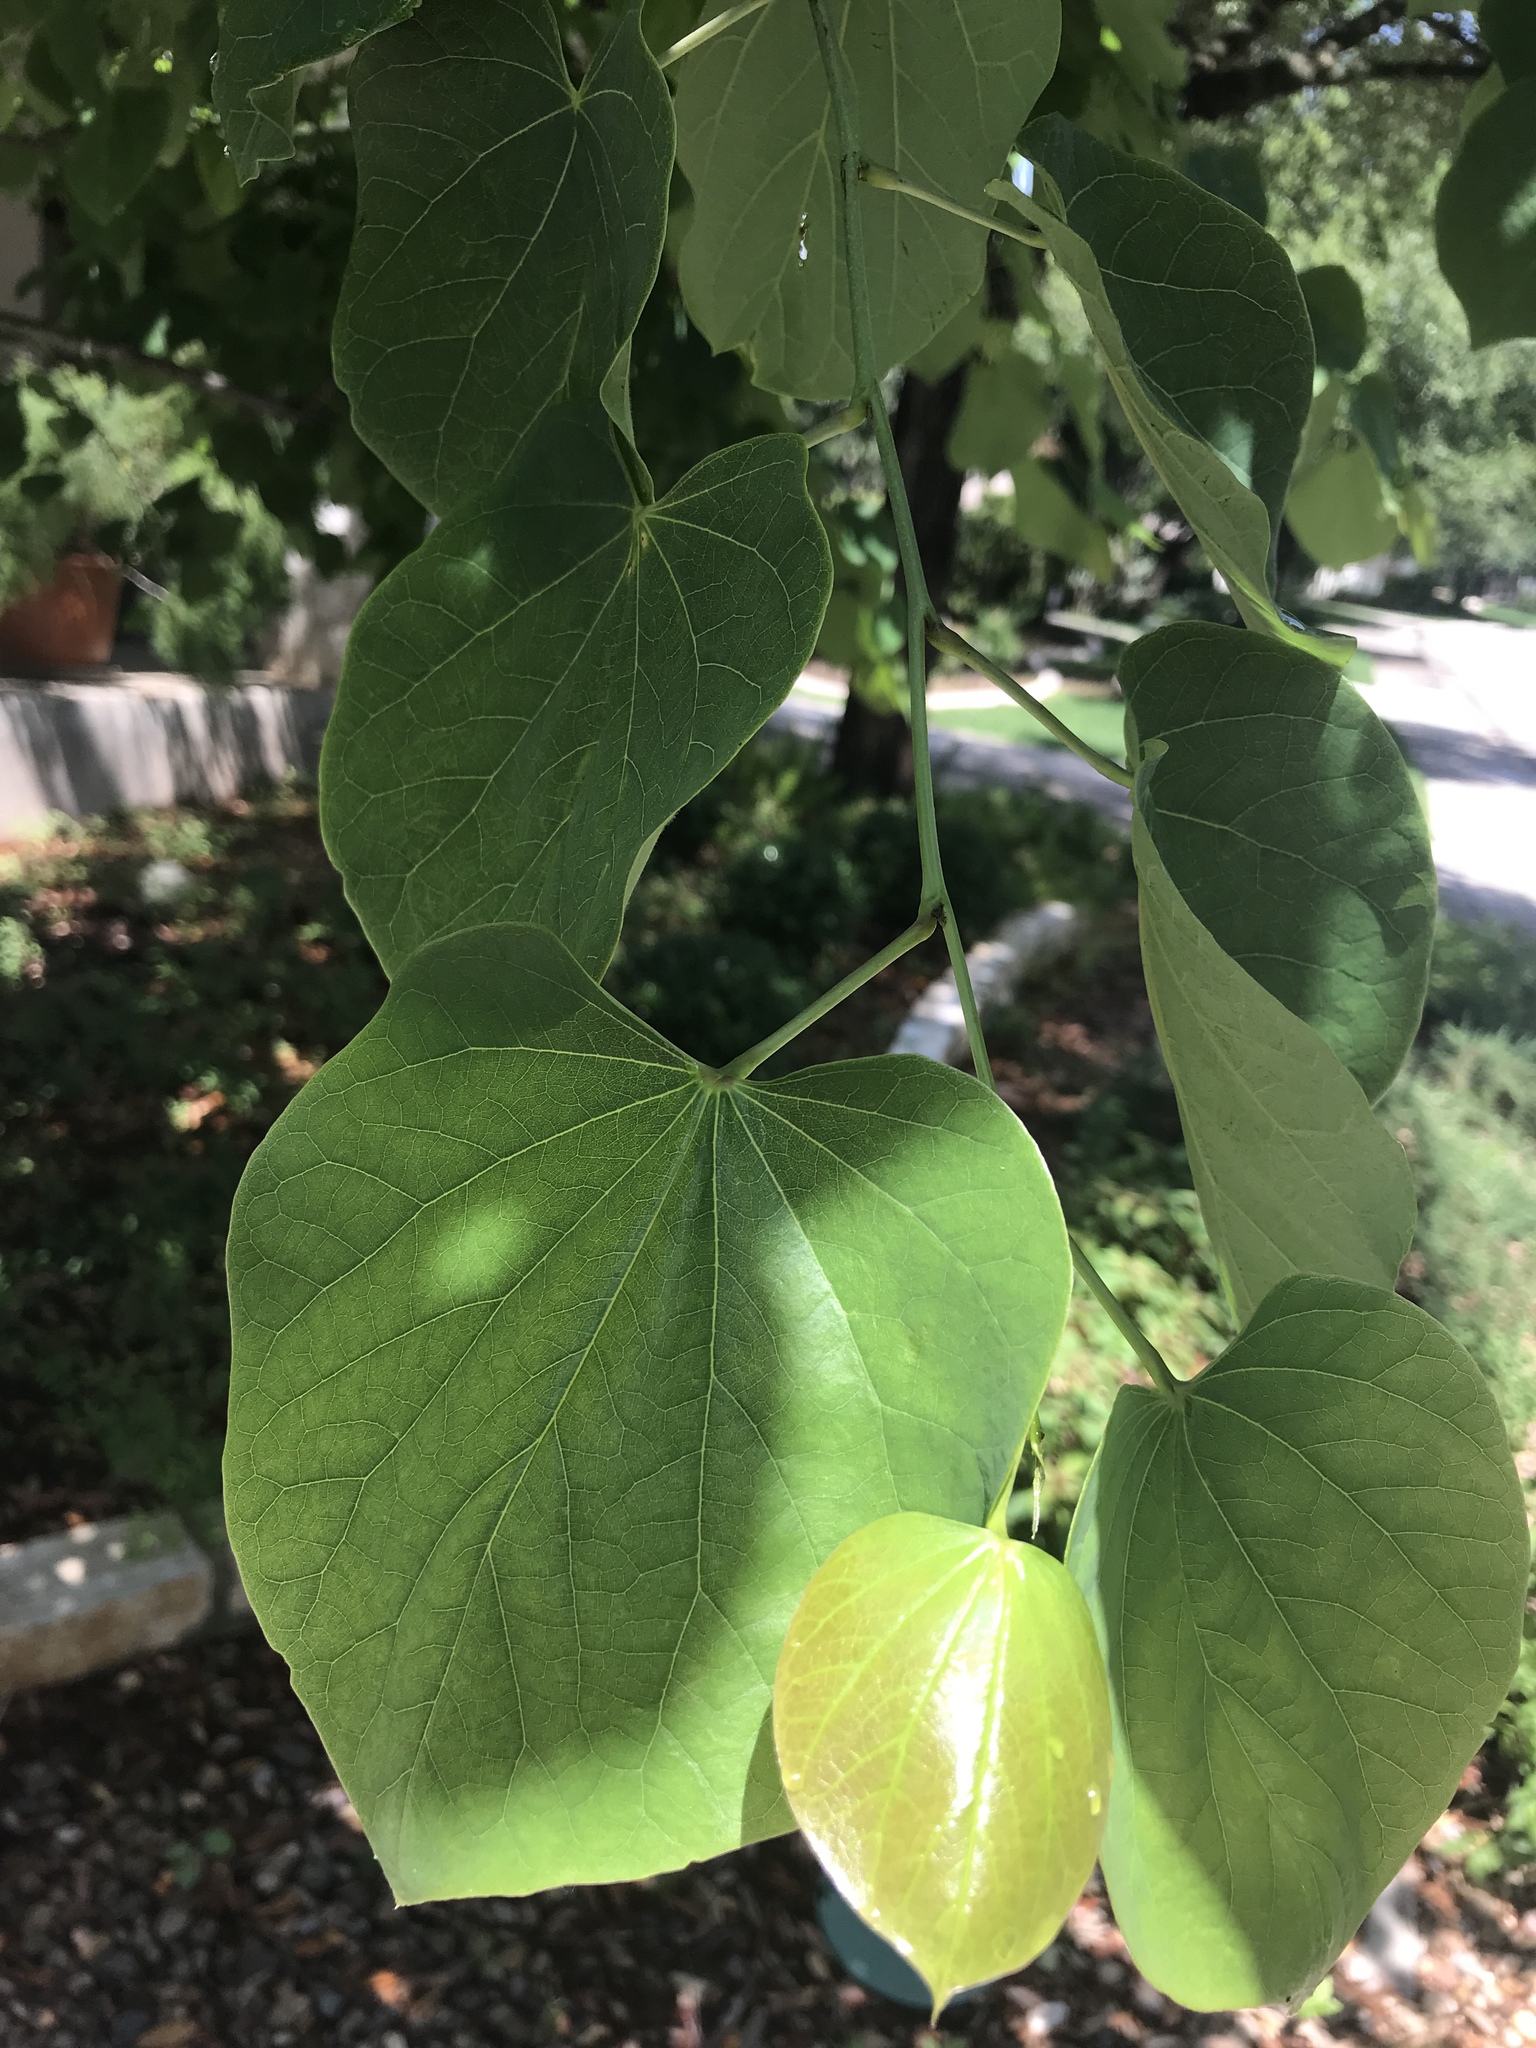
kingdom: Plantae
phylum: Tracheophyta
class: Magnoliopsida
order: Fabales
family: Fabaceae
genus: Cercis
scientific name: Cercis canadensis
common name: Eastern redbud
